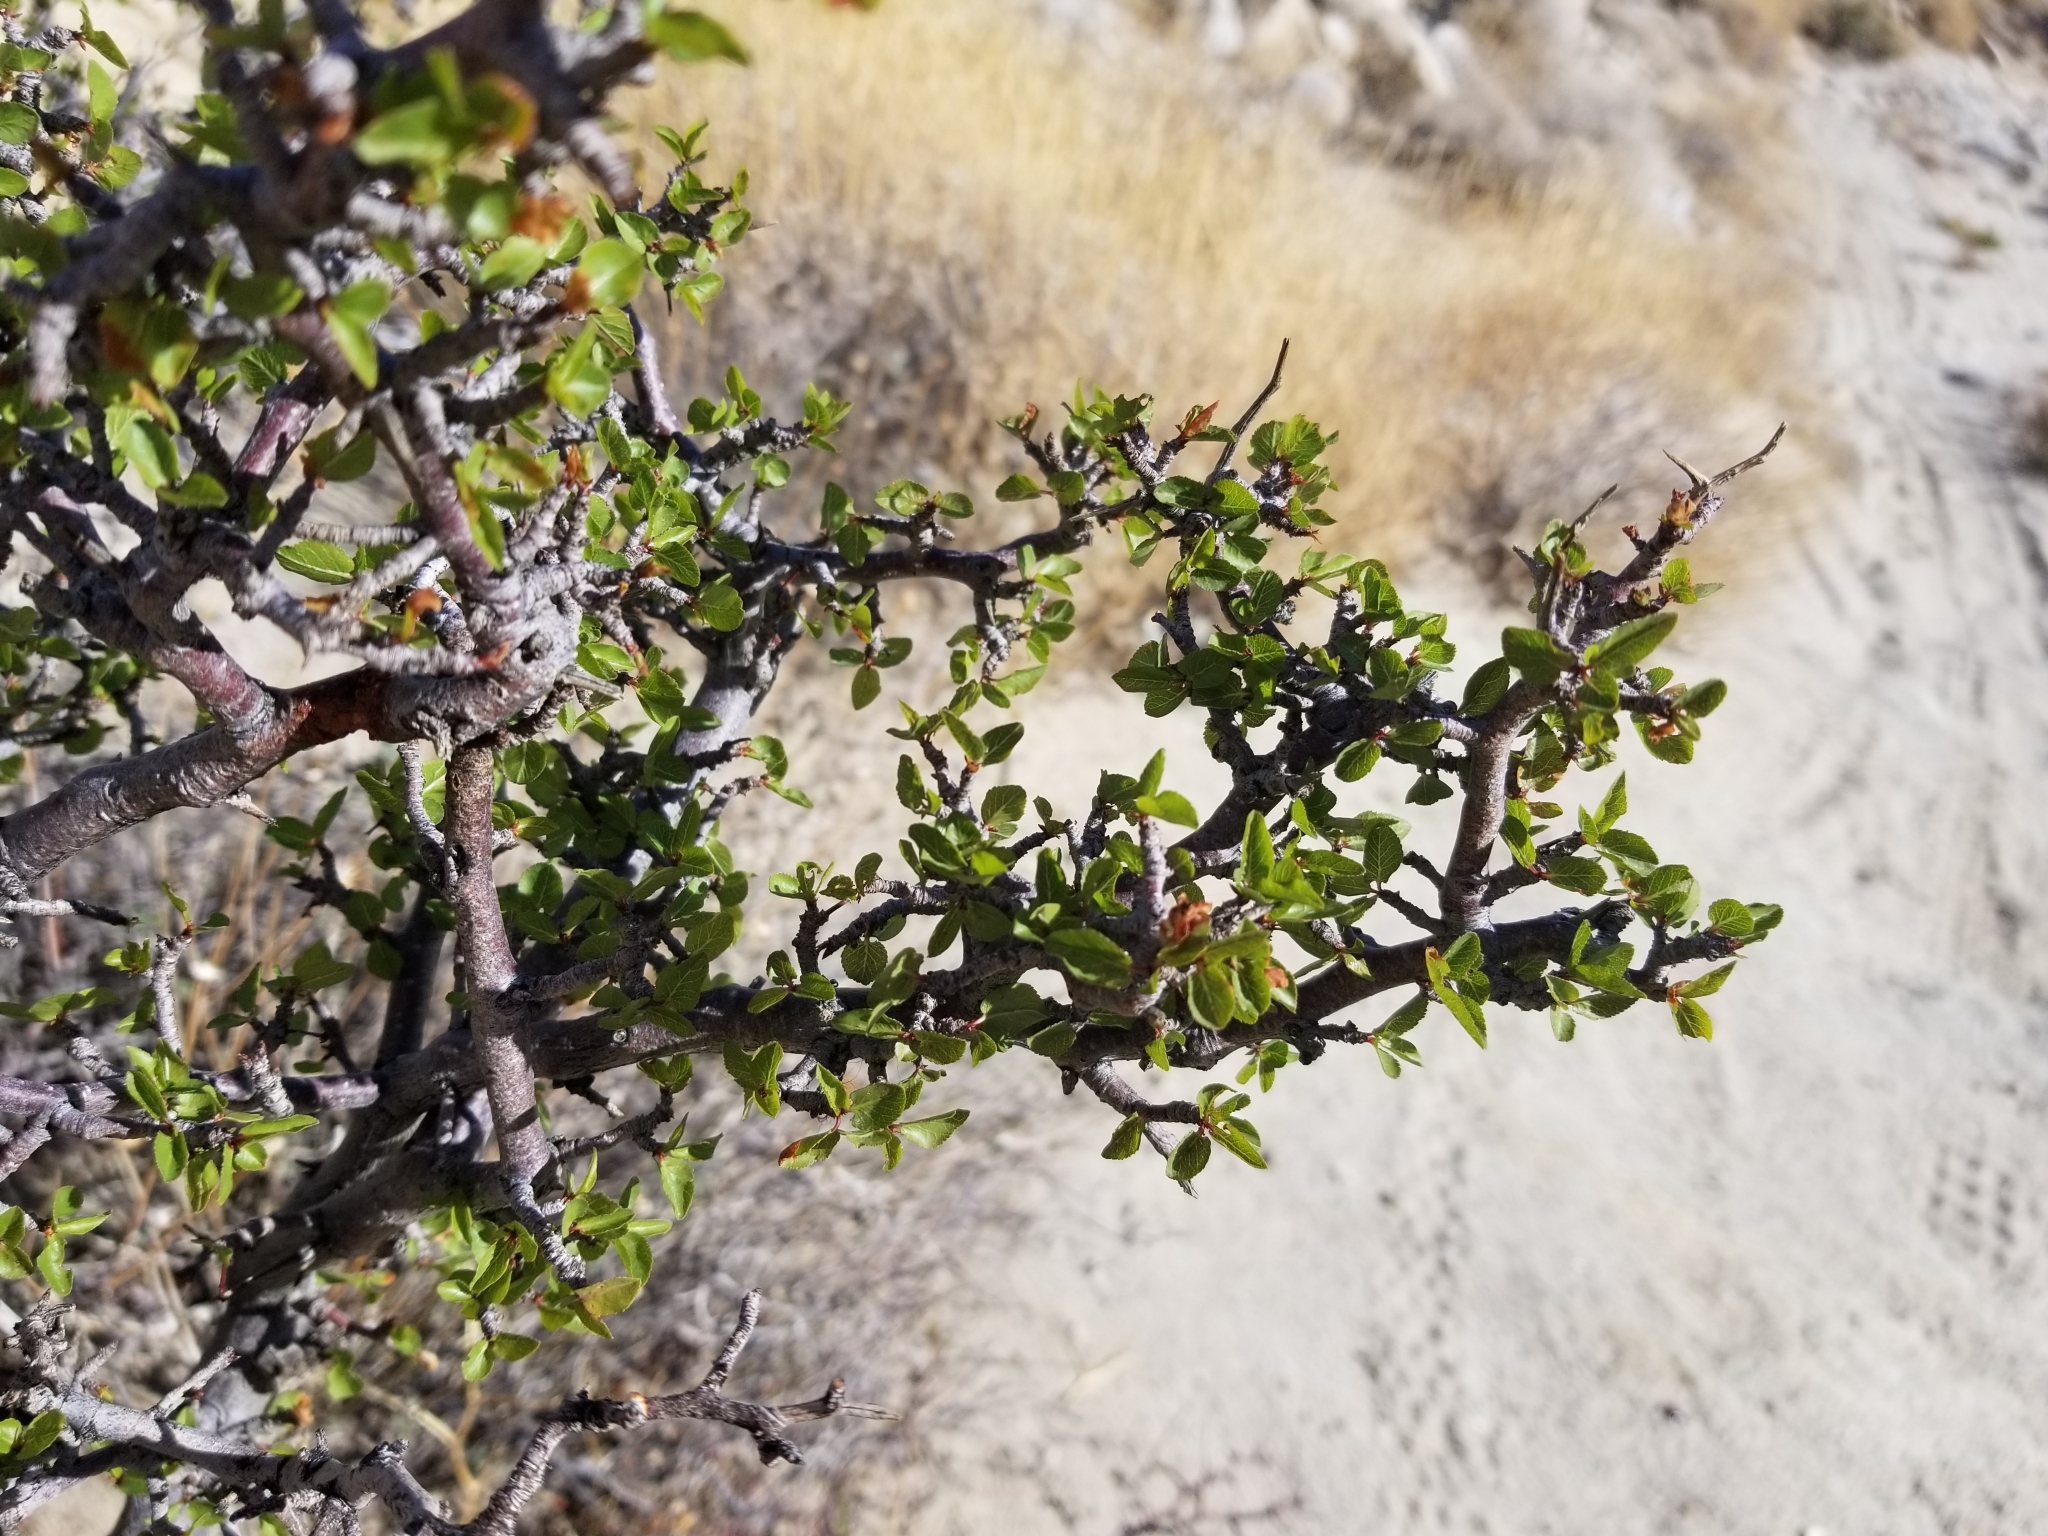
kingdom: Plantae
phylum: Tracheophyta
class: Magnoliopsida
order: Rosales
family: Rosaceae
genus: Prunus
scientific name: Prunus fremontii
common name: Desert apricot
